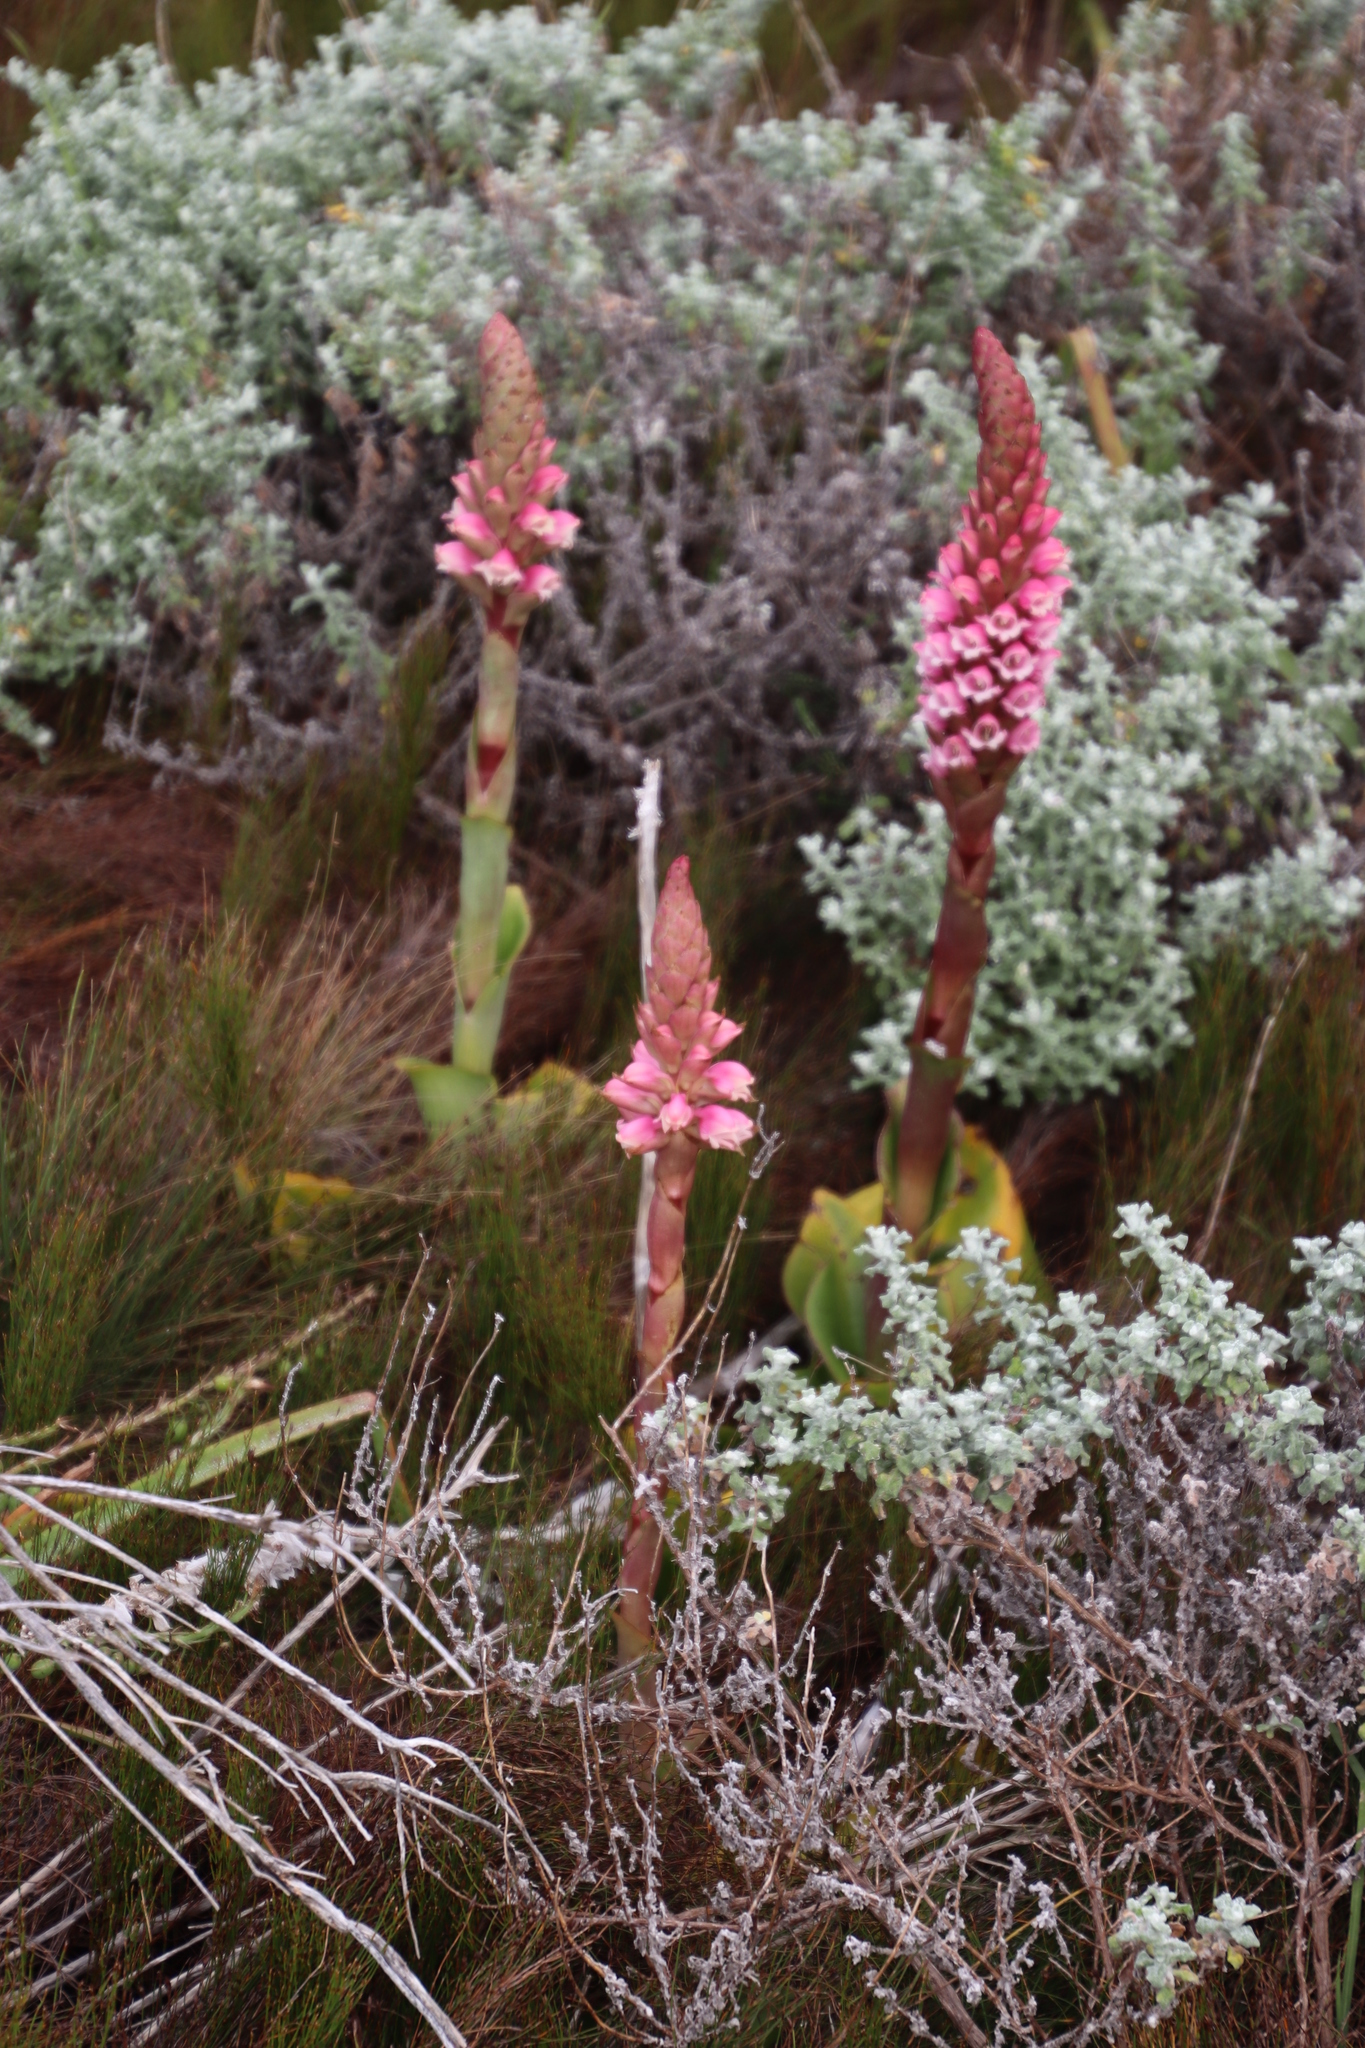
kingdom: Plantae
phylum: Tracheophyta
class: Liliopsida
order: Asparagales
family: Orchidaceae
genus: Satyrium
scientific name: Satyrium carneum
